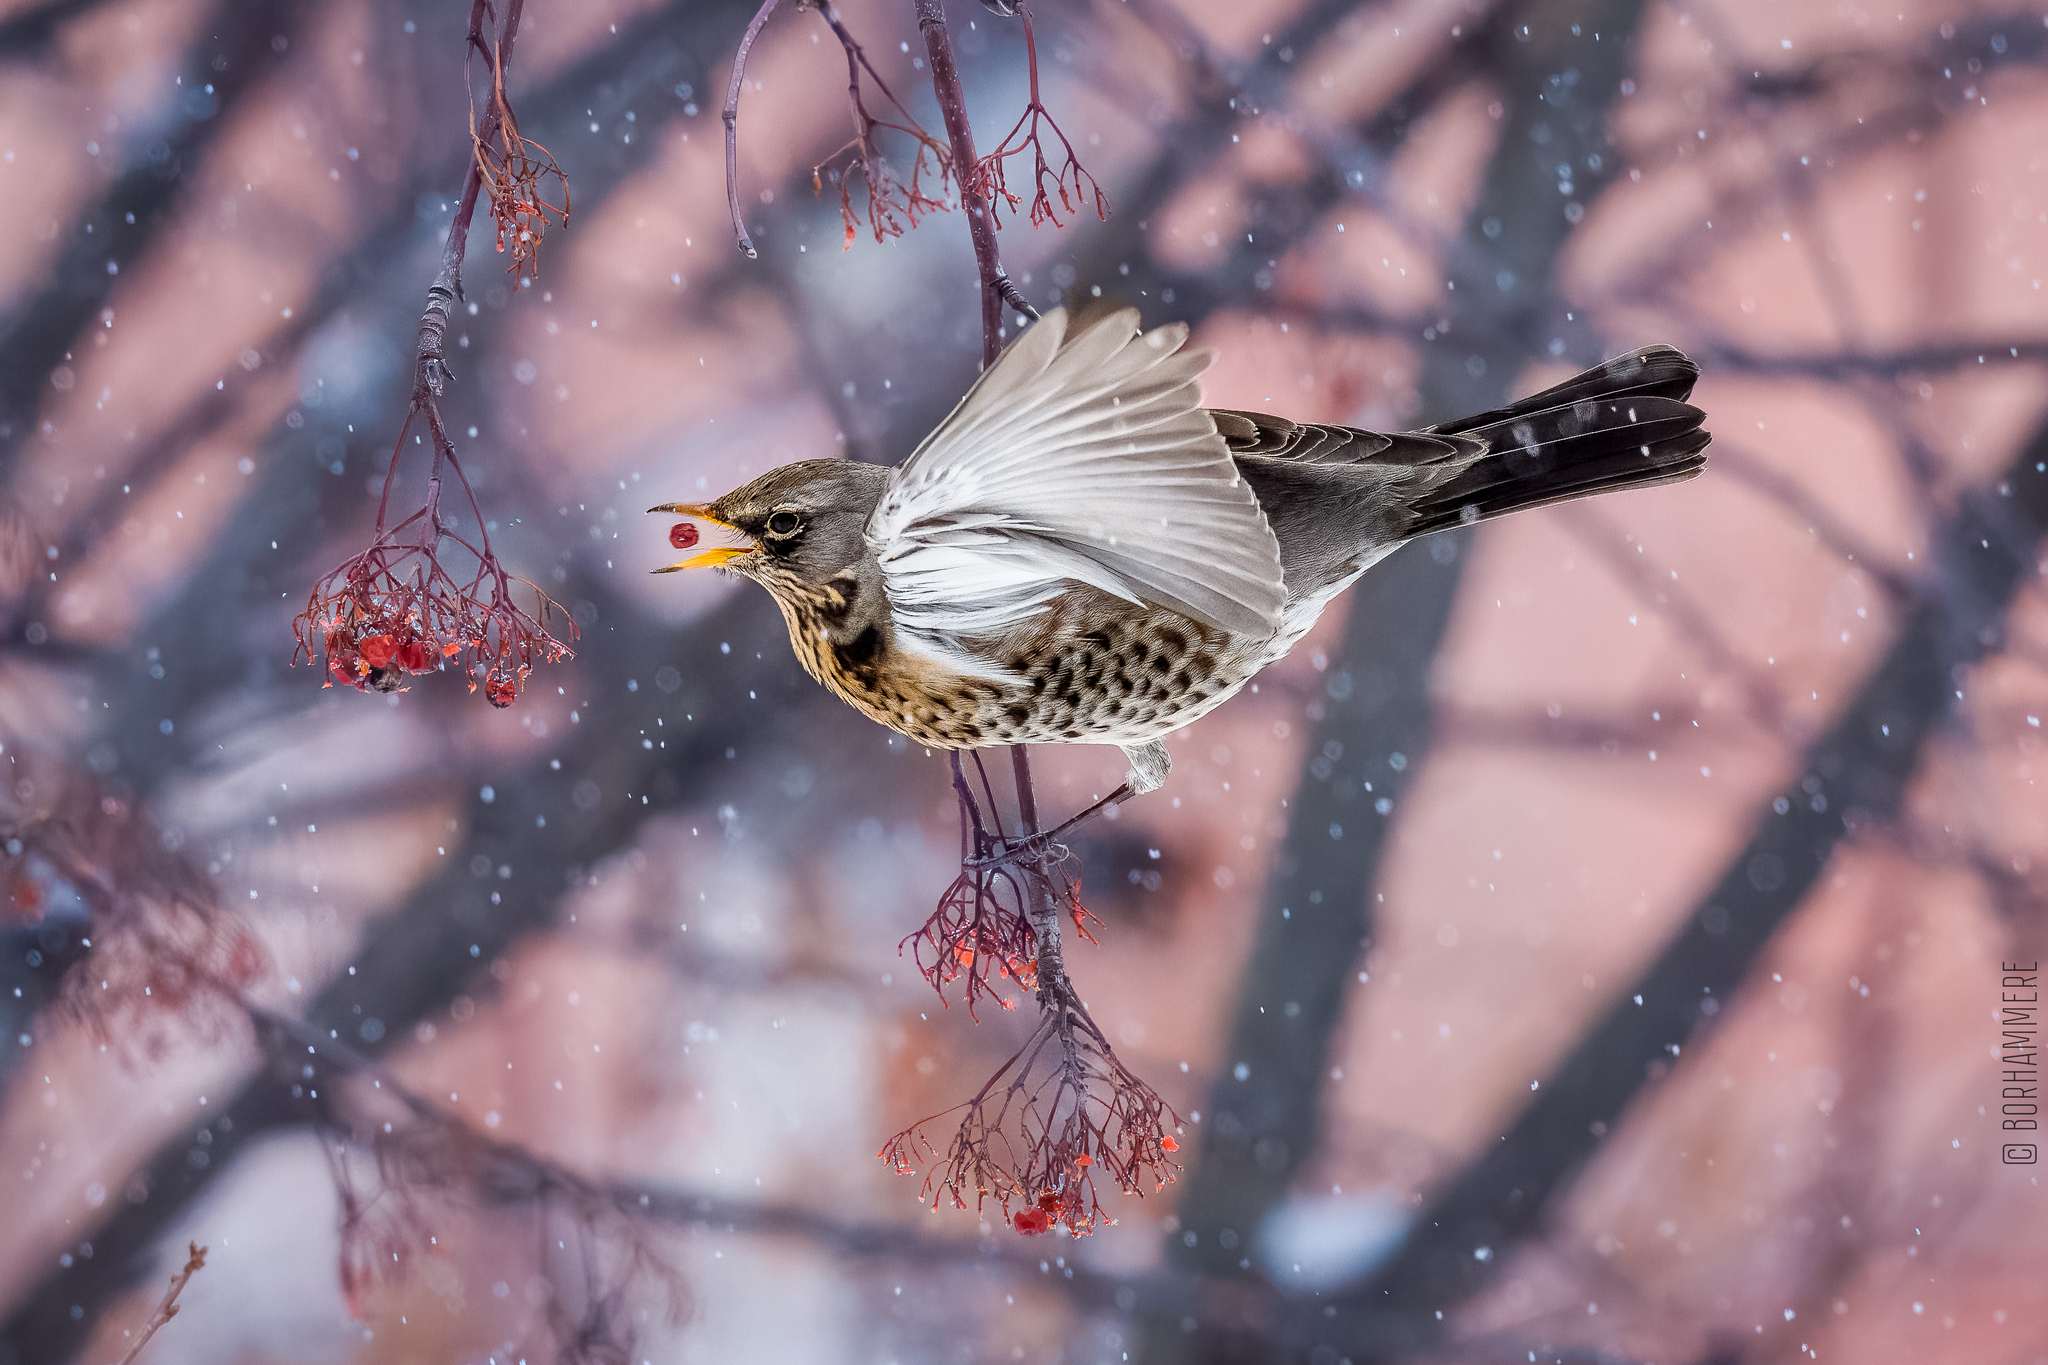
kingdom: Animalia
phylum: Chordata
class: Aves
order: Passeriformes
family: Turdidae
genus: Turdus
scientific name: Turdus pilaris
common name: Fieldfare
